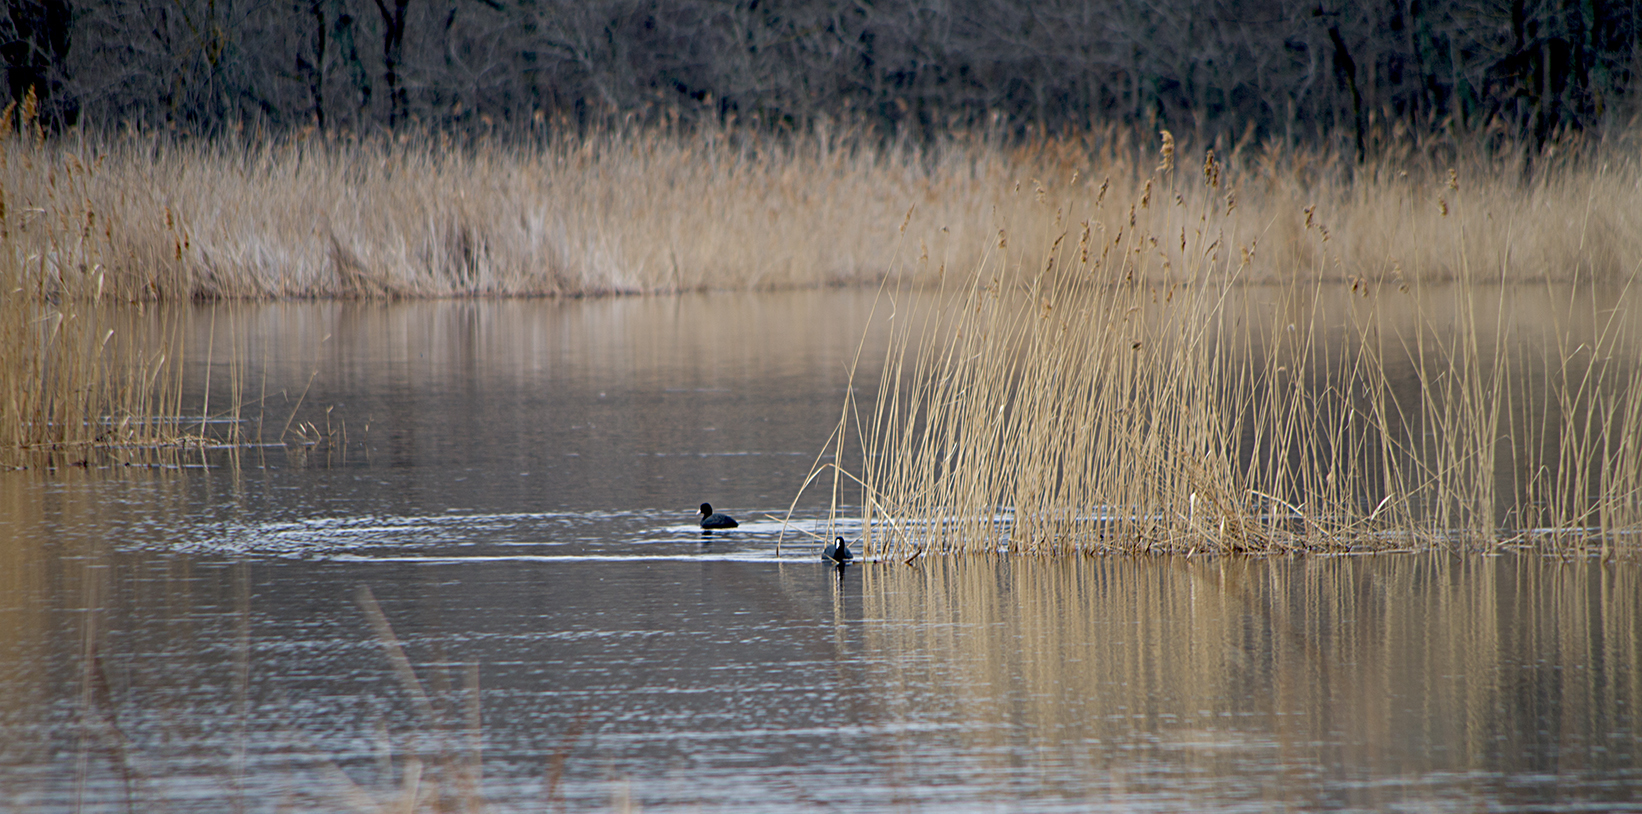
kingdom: Animalia
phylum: Chordata
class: Aves
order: Gruiformes
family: Rallidae
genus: Fulica
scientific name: Fulica atra
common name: Eurasian coot
